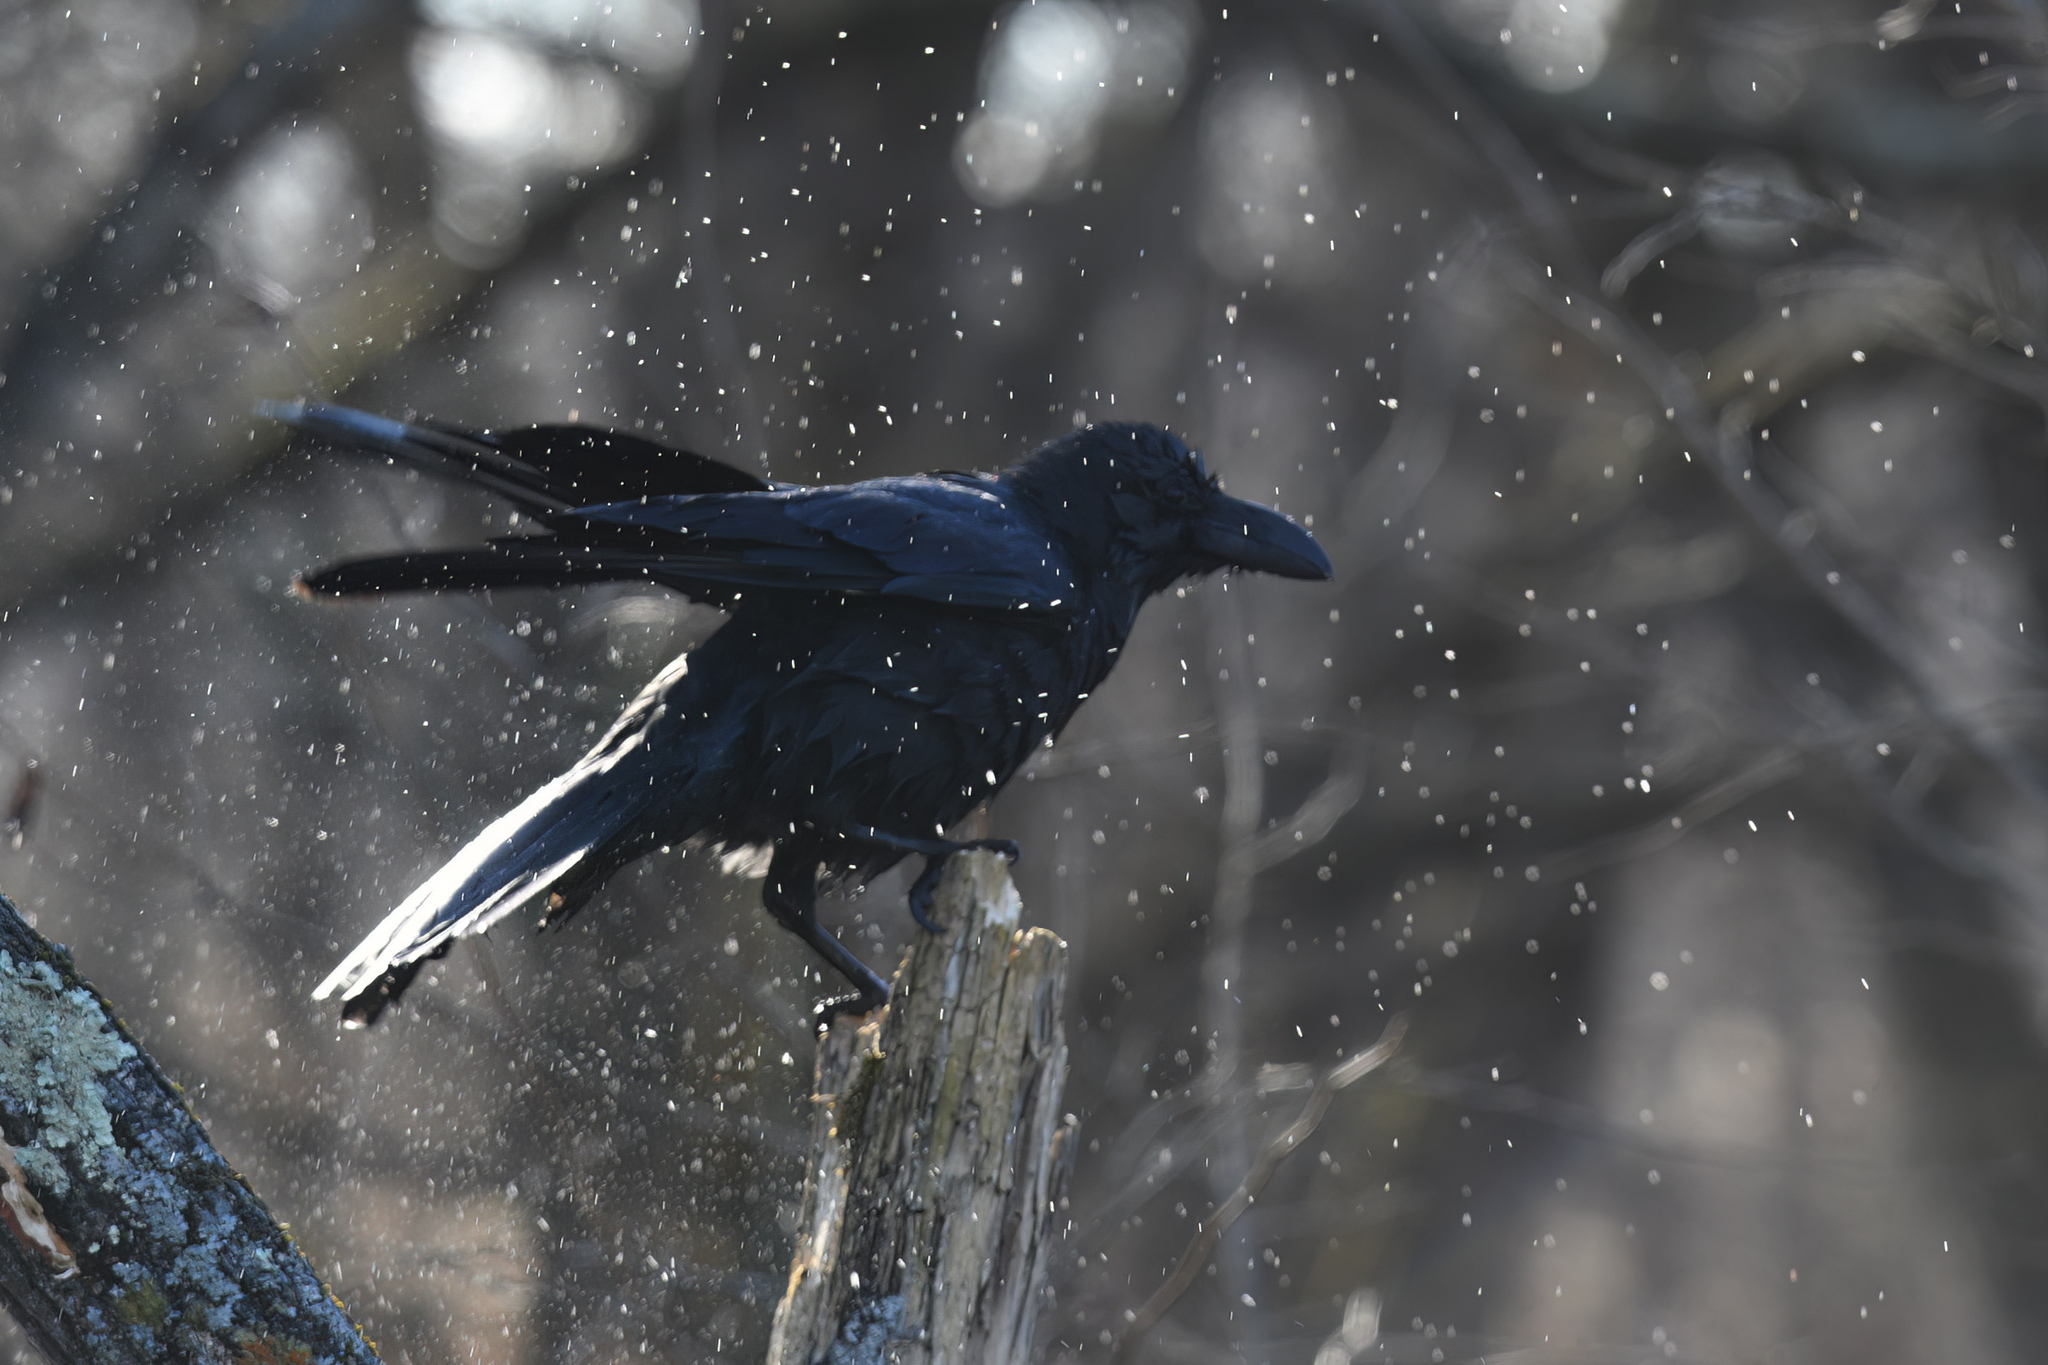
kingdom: Animalia
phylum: Chordata
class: Aves
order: Passeriformes
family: Corvidae
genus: Corvus
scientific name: Corvus macrorhynchos
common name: Large-billed crow
